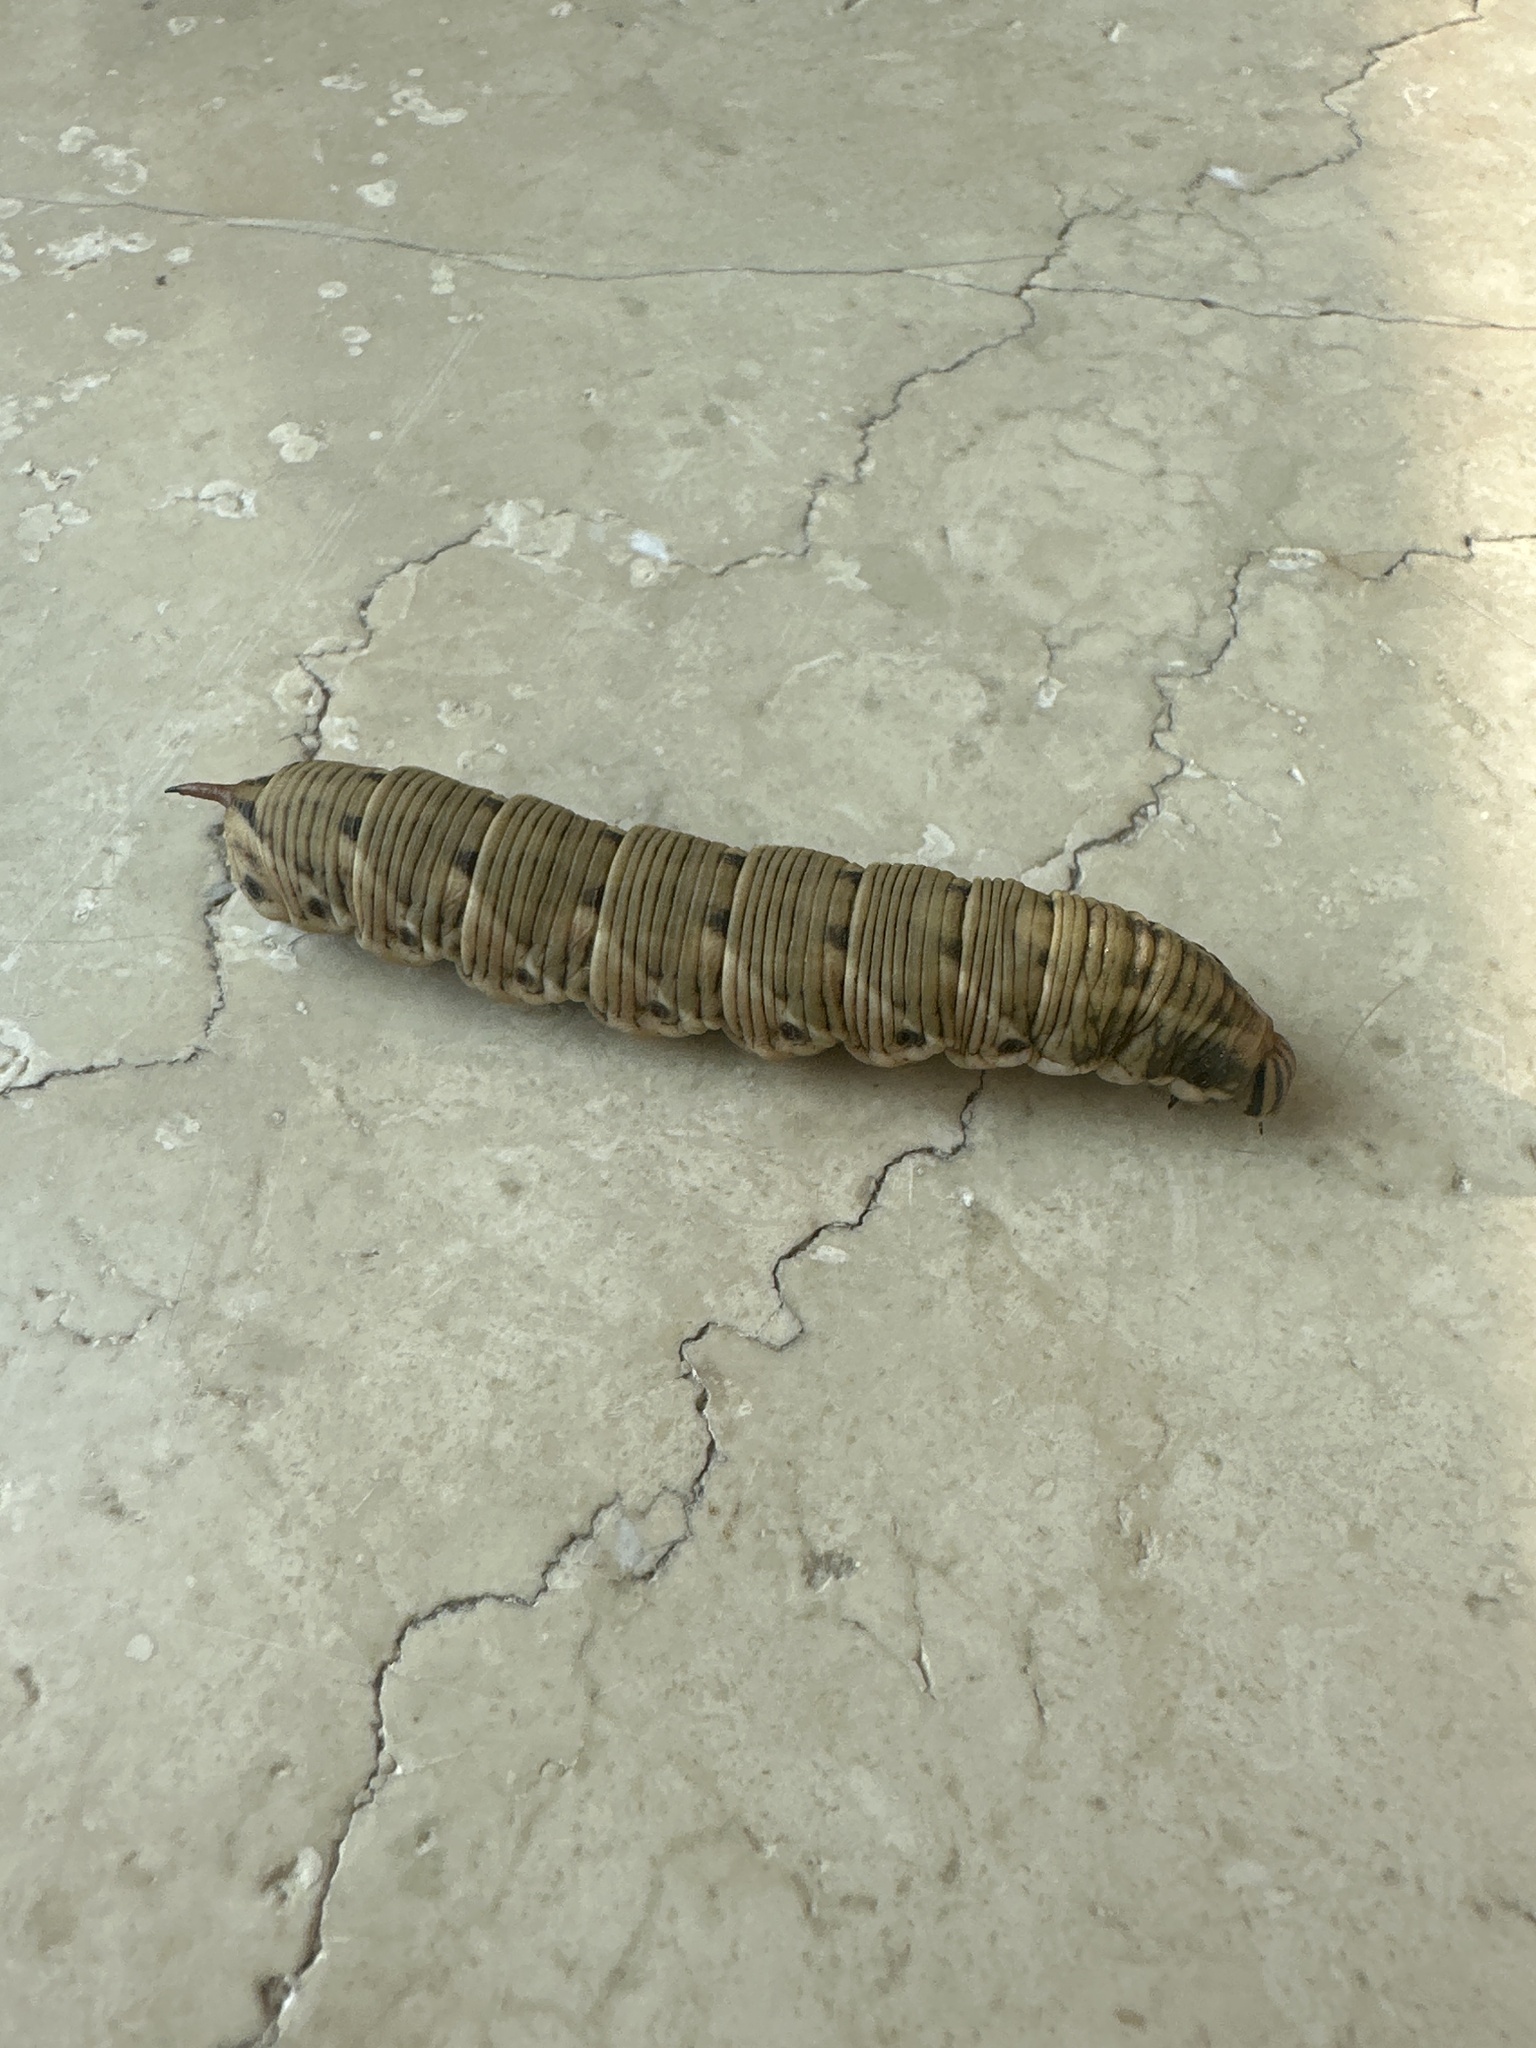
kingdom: Animalia
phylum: Arthropoda
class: Insecta
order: Lepidoptera
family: Sphingidae
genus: Agrius
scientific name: Agrius convolvuli
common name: Convolvulus hawkmoth
